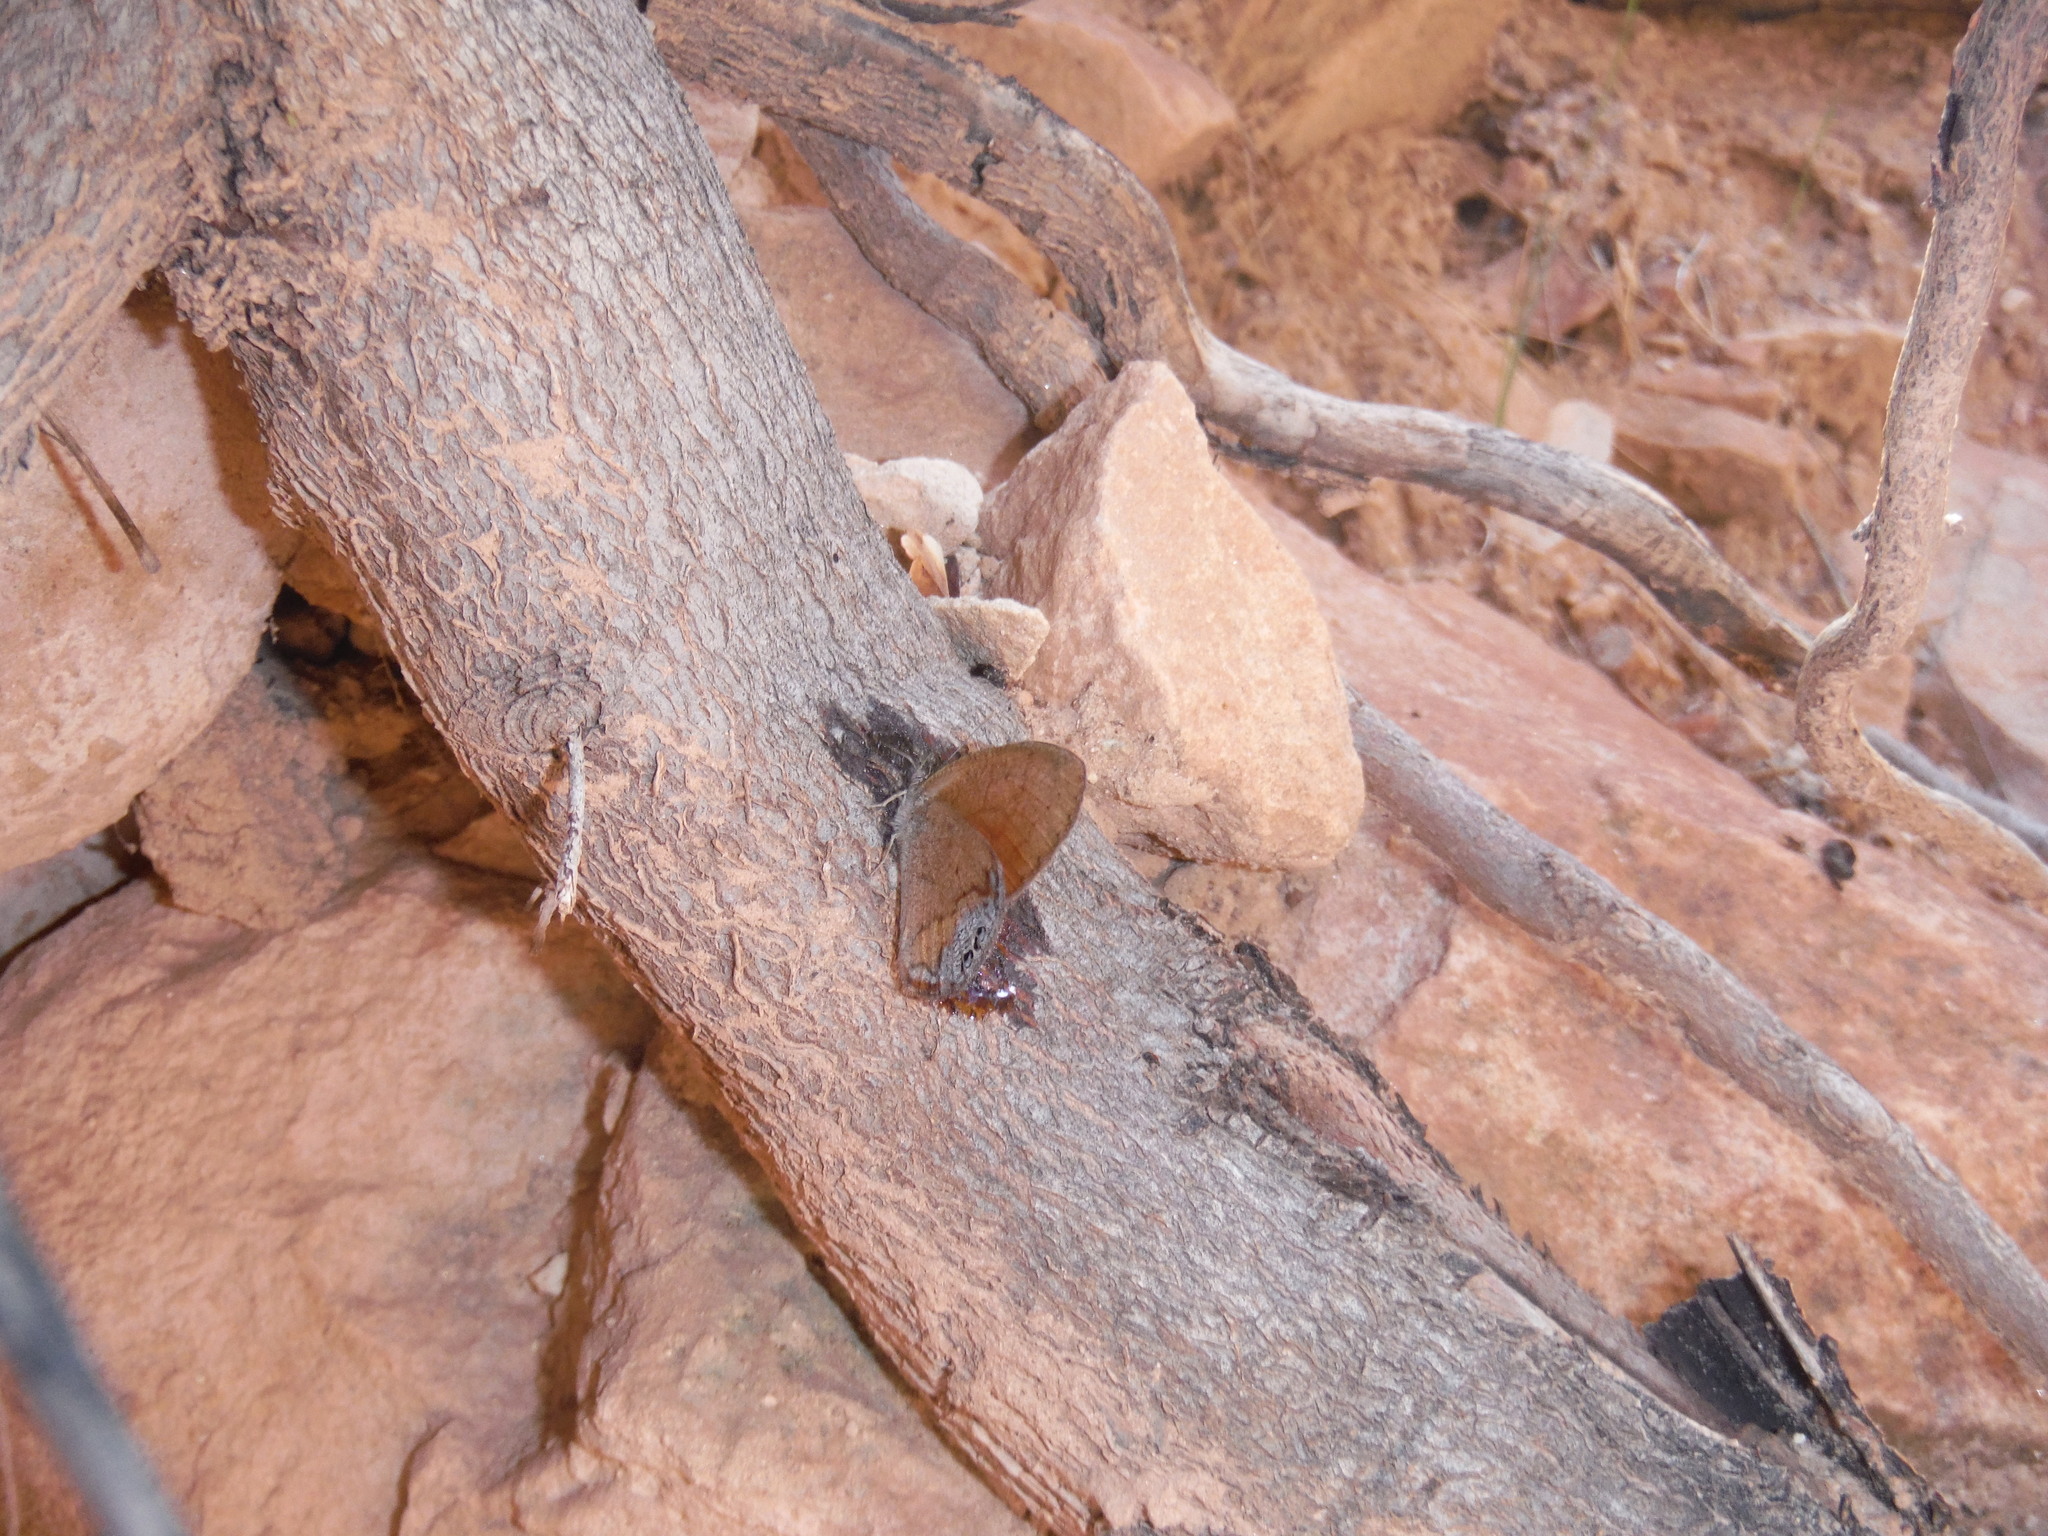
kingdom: Animalia
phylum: Arthropoda
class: Insecta
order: Lepidoptera
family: Nymphalidae
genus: Euptychia
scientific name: Euptychia Cyllopsis pertepida
